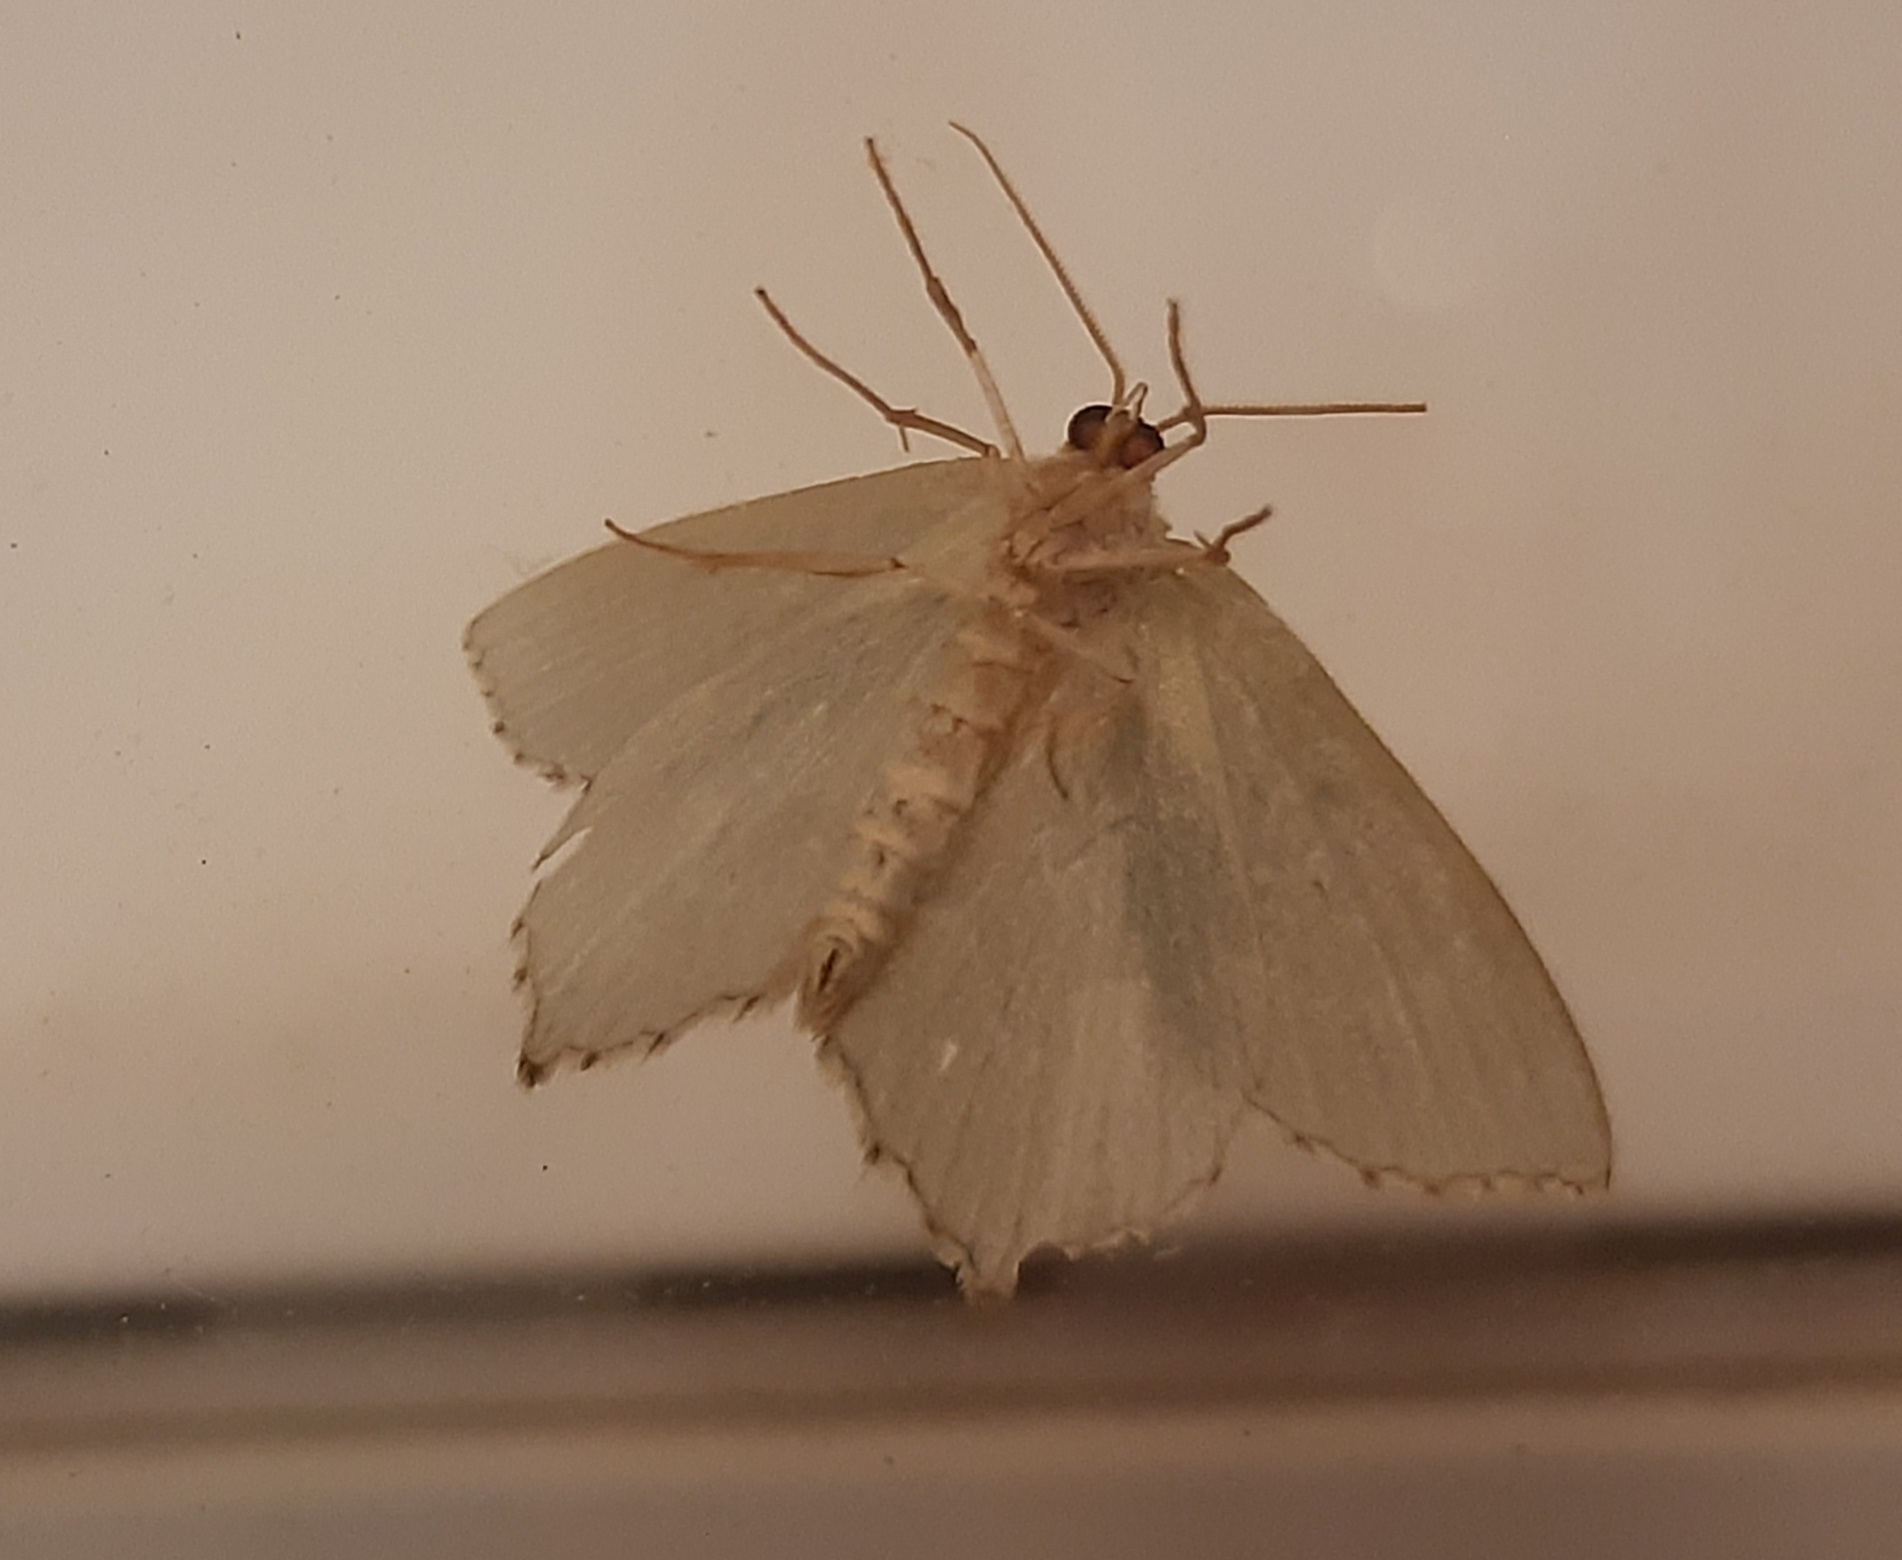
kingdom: Animalia
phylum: Arthropoda
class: Insecta
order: Lepidoptera
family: Geometridae
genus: Hemithea
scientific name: Hemithea aestivaria
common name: Common emerald
